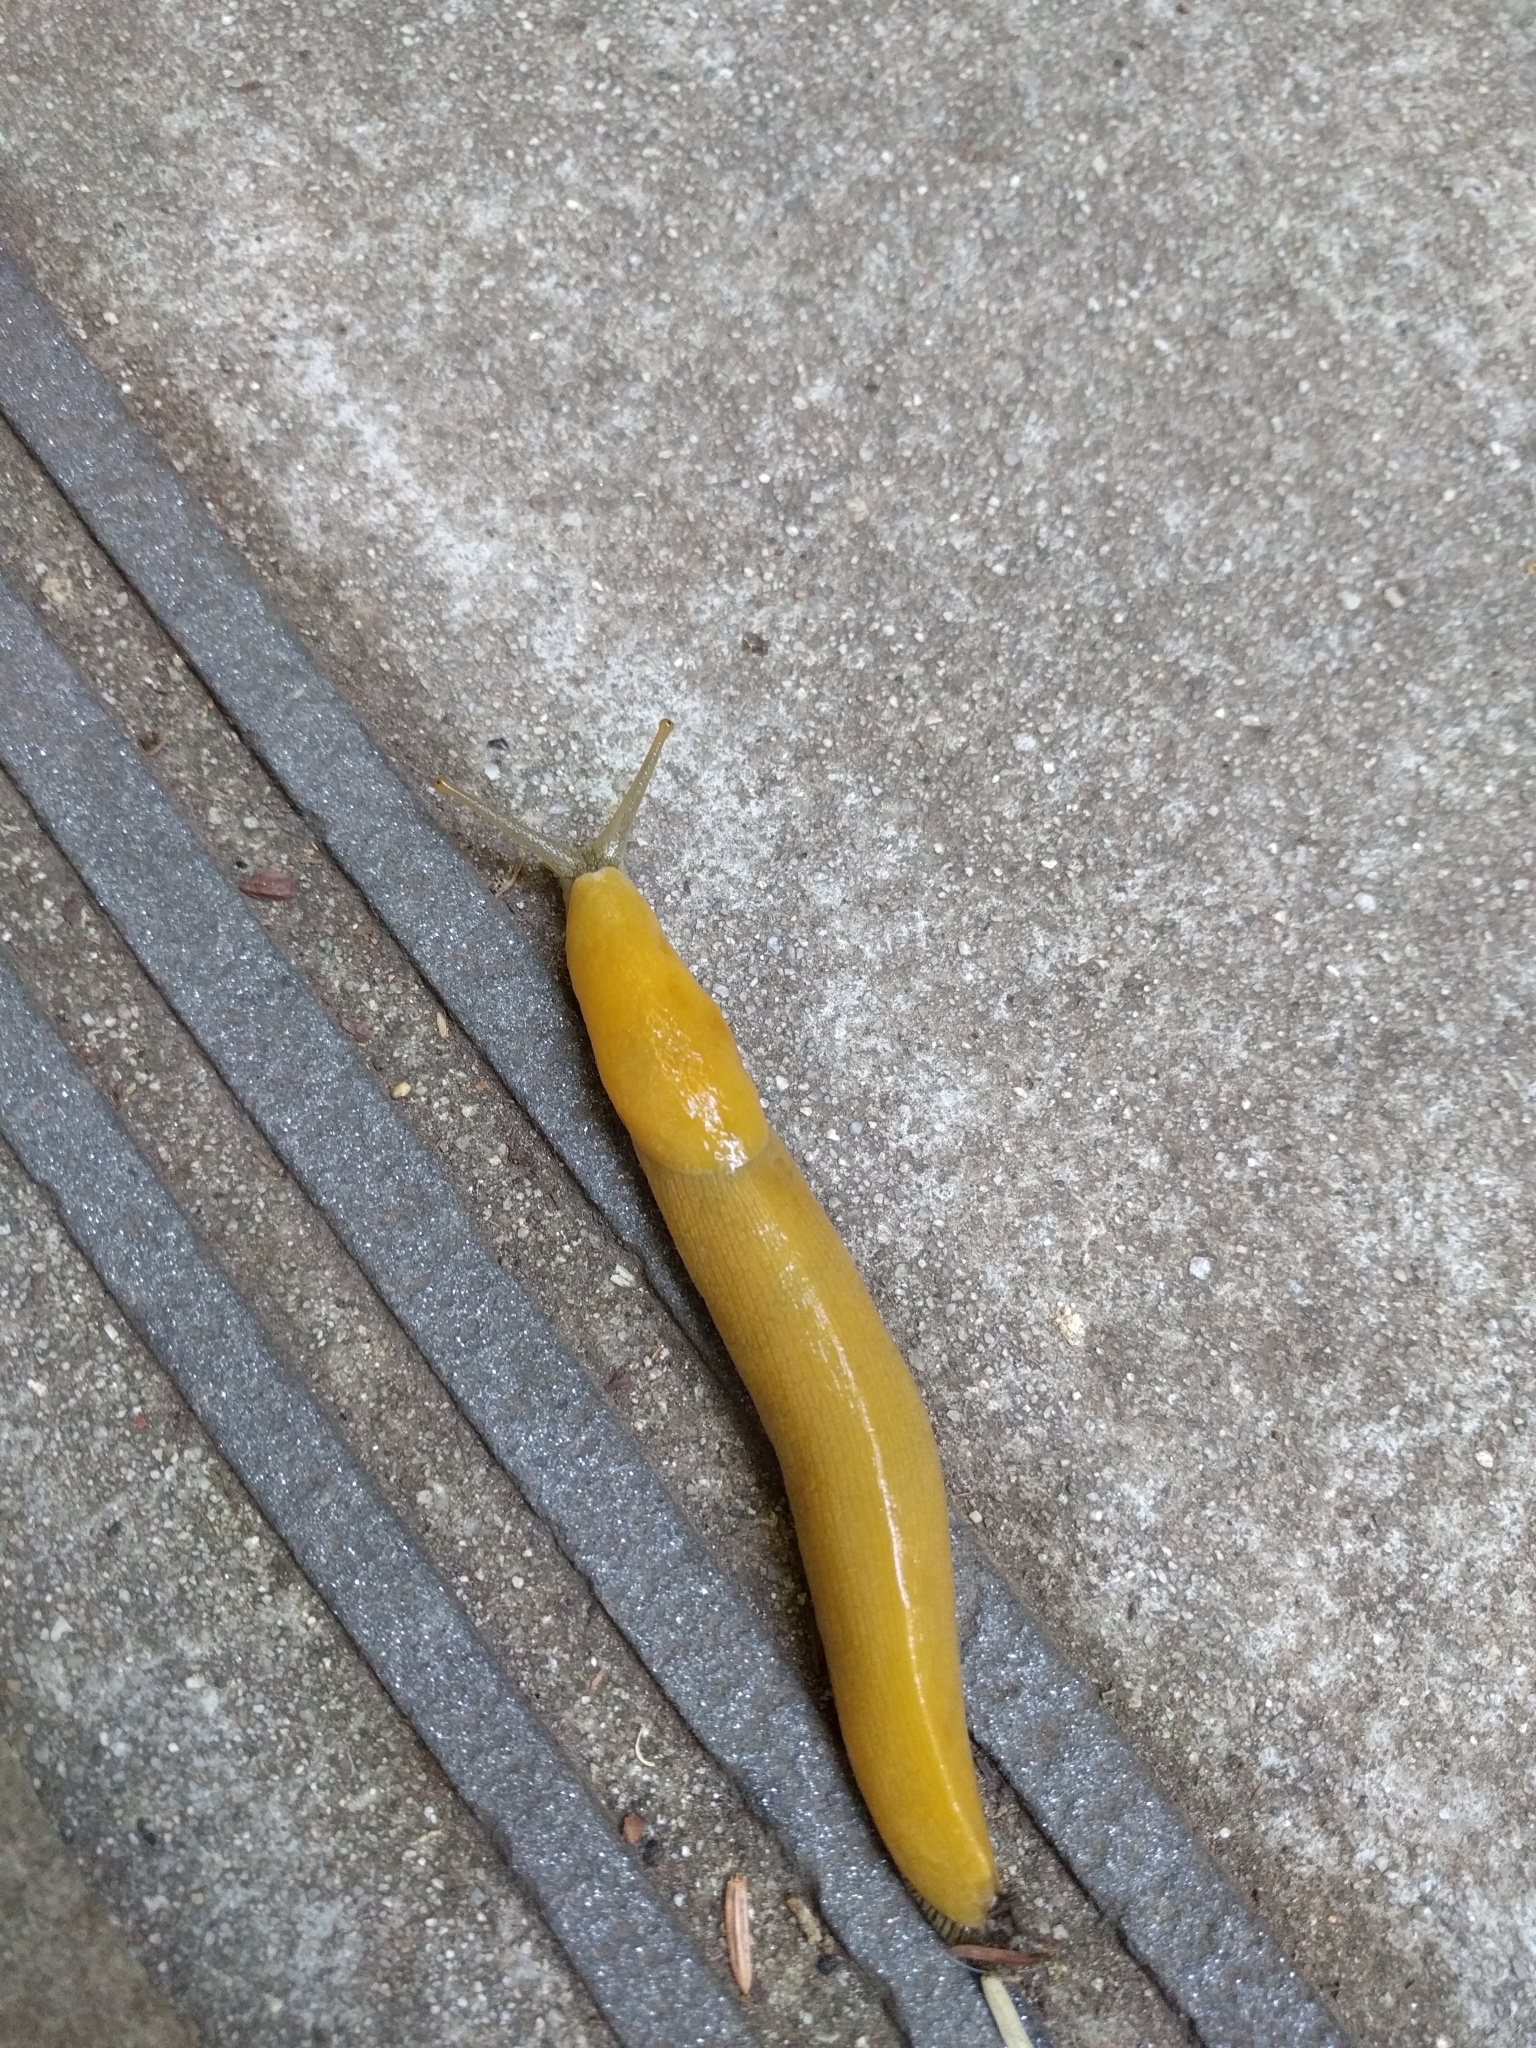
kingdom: Animalia
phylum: Mollusca
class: Gastropoda
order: Stylommatophora
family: Ariolimacidae
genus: Ariolimax
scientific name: Ariolimax dolichophallus
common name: Slender banana slug
